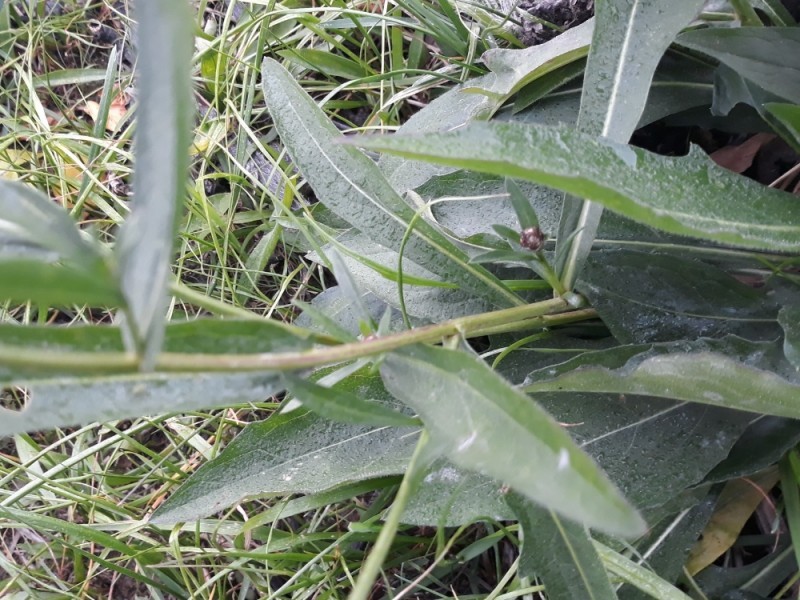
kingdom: Plantae
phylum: Tracheophyta
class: Magnoliopsida
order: Asterales
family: Asteraceae
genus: Centaurea
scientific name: Centaurea jacea
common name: Brown knapweed
